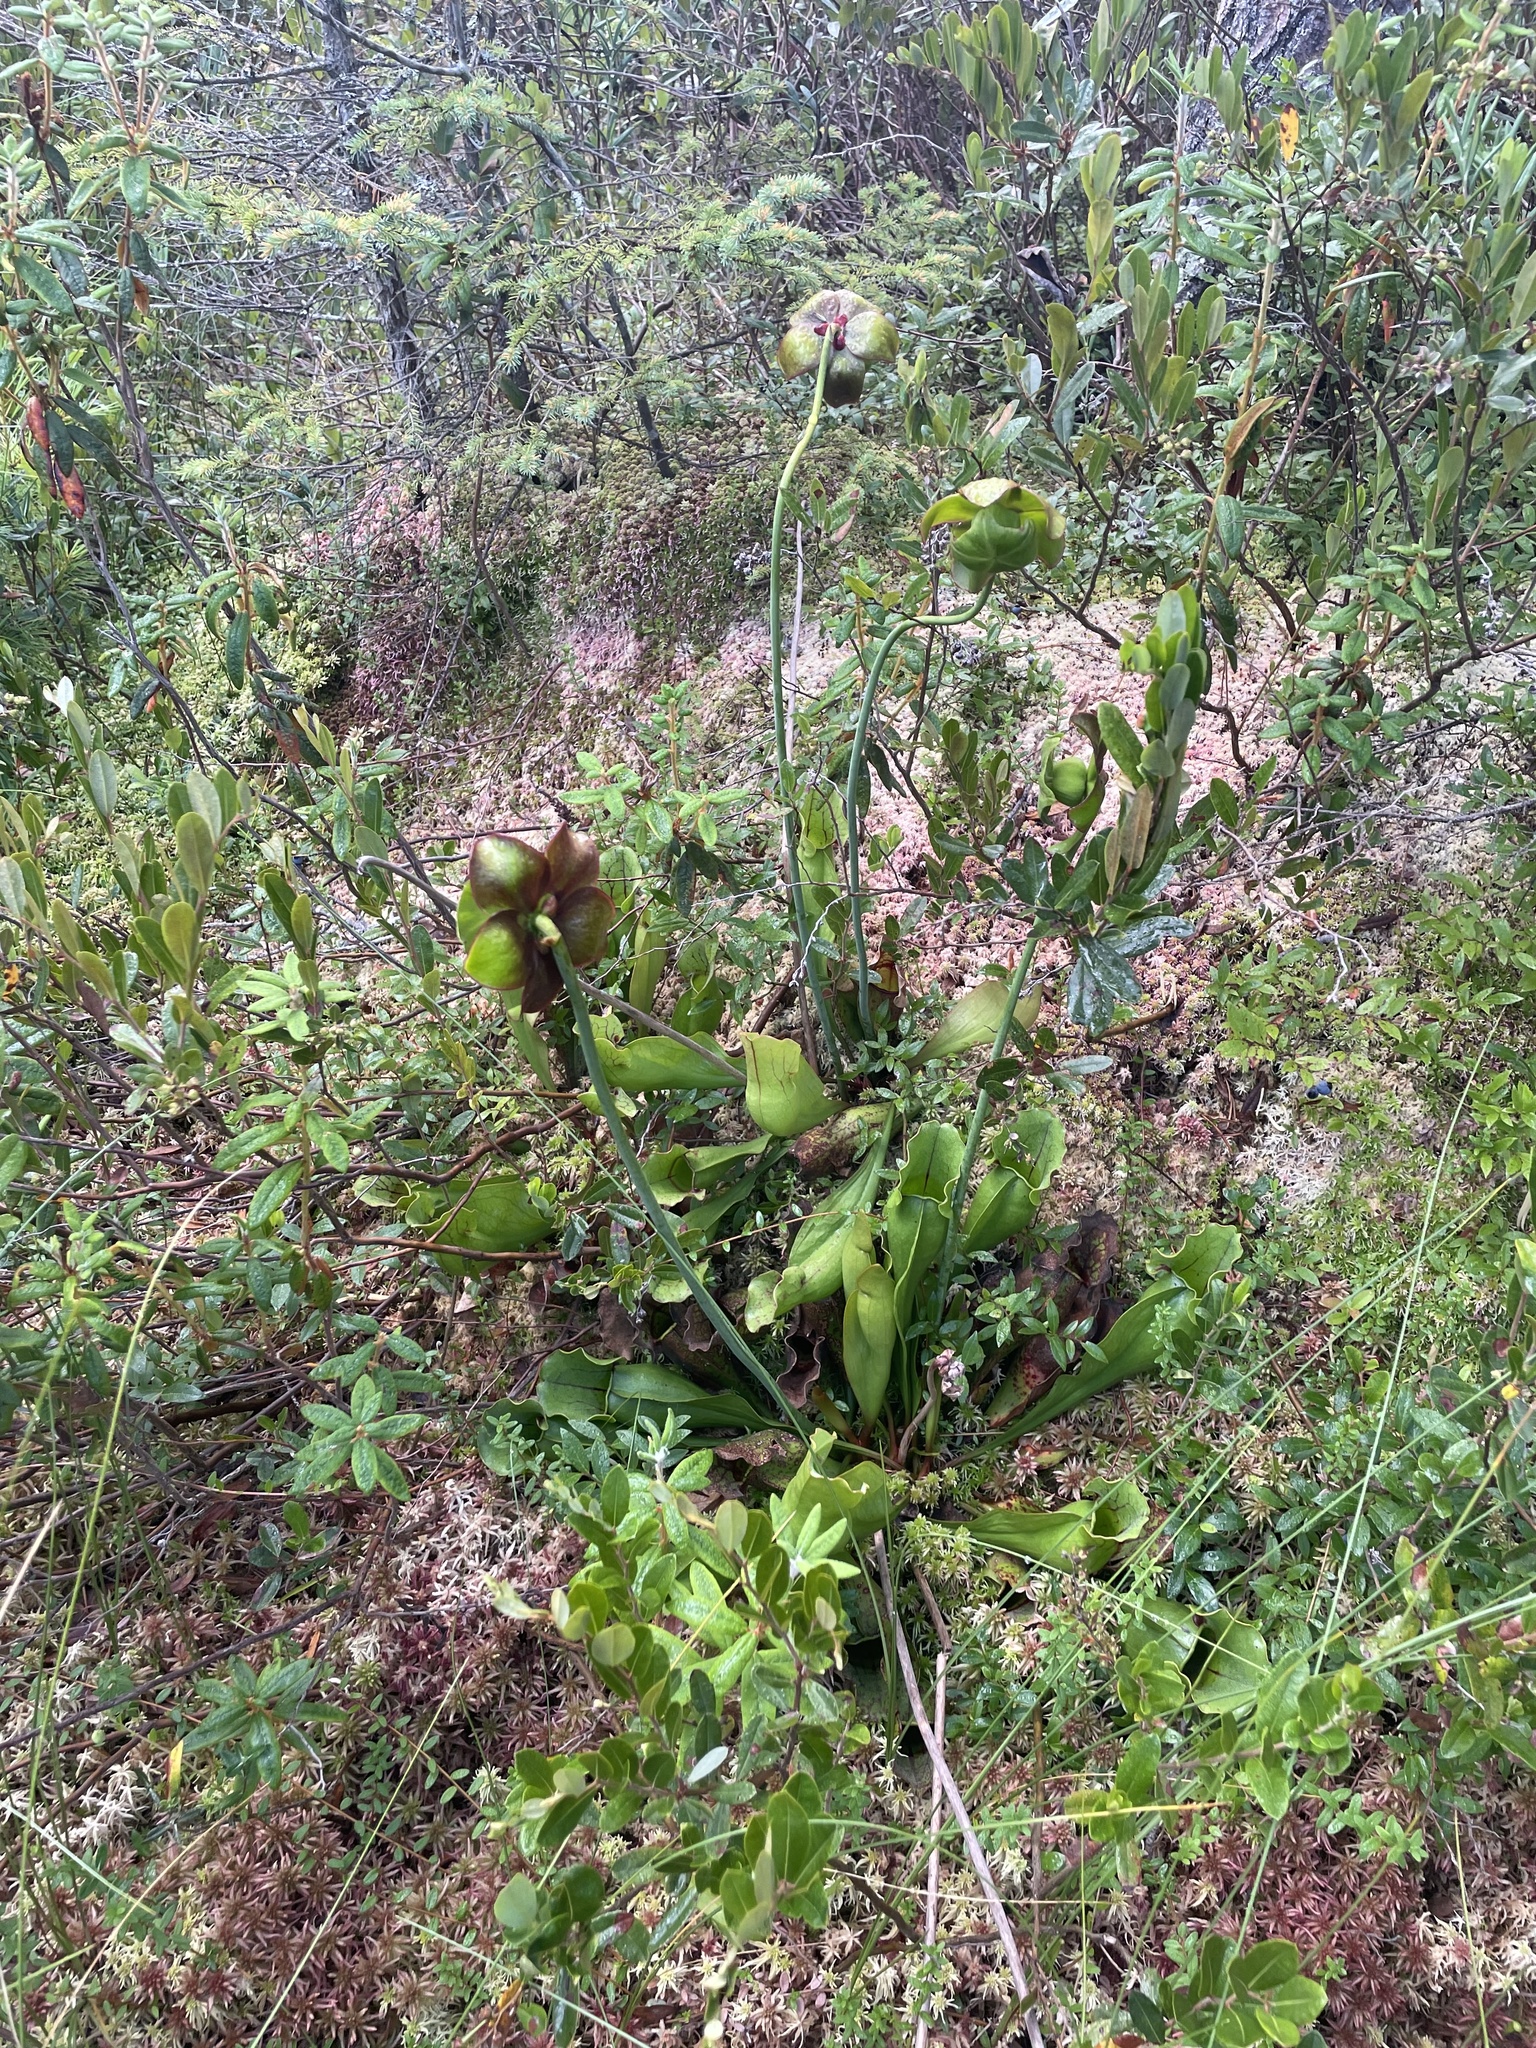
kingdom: Plantae
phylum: Tracheophyta
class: Magnoliopsida
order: Ericales
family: Sarraceniaceae
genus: Sarracenia
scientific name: Sarracenia purpurea
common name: Pitcherplant
